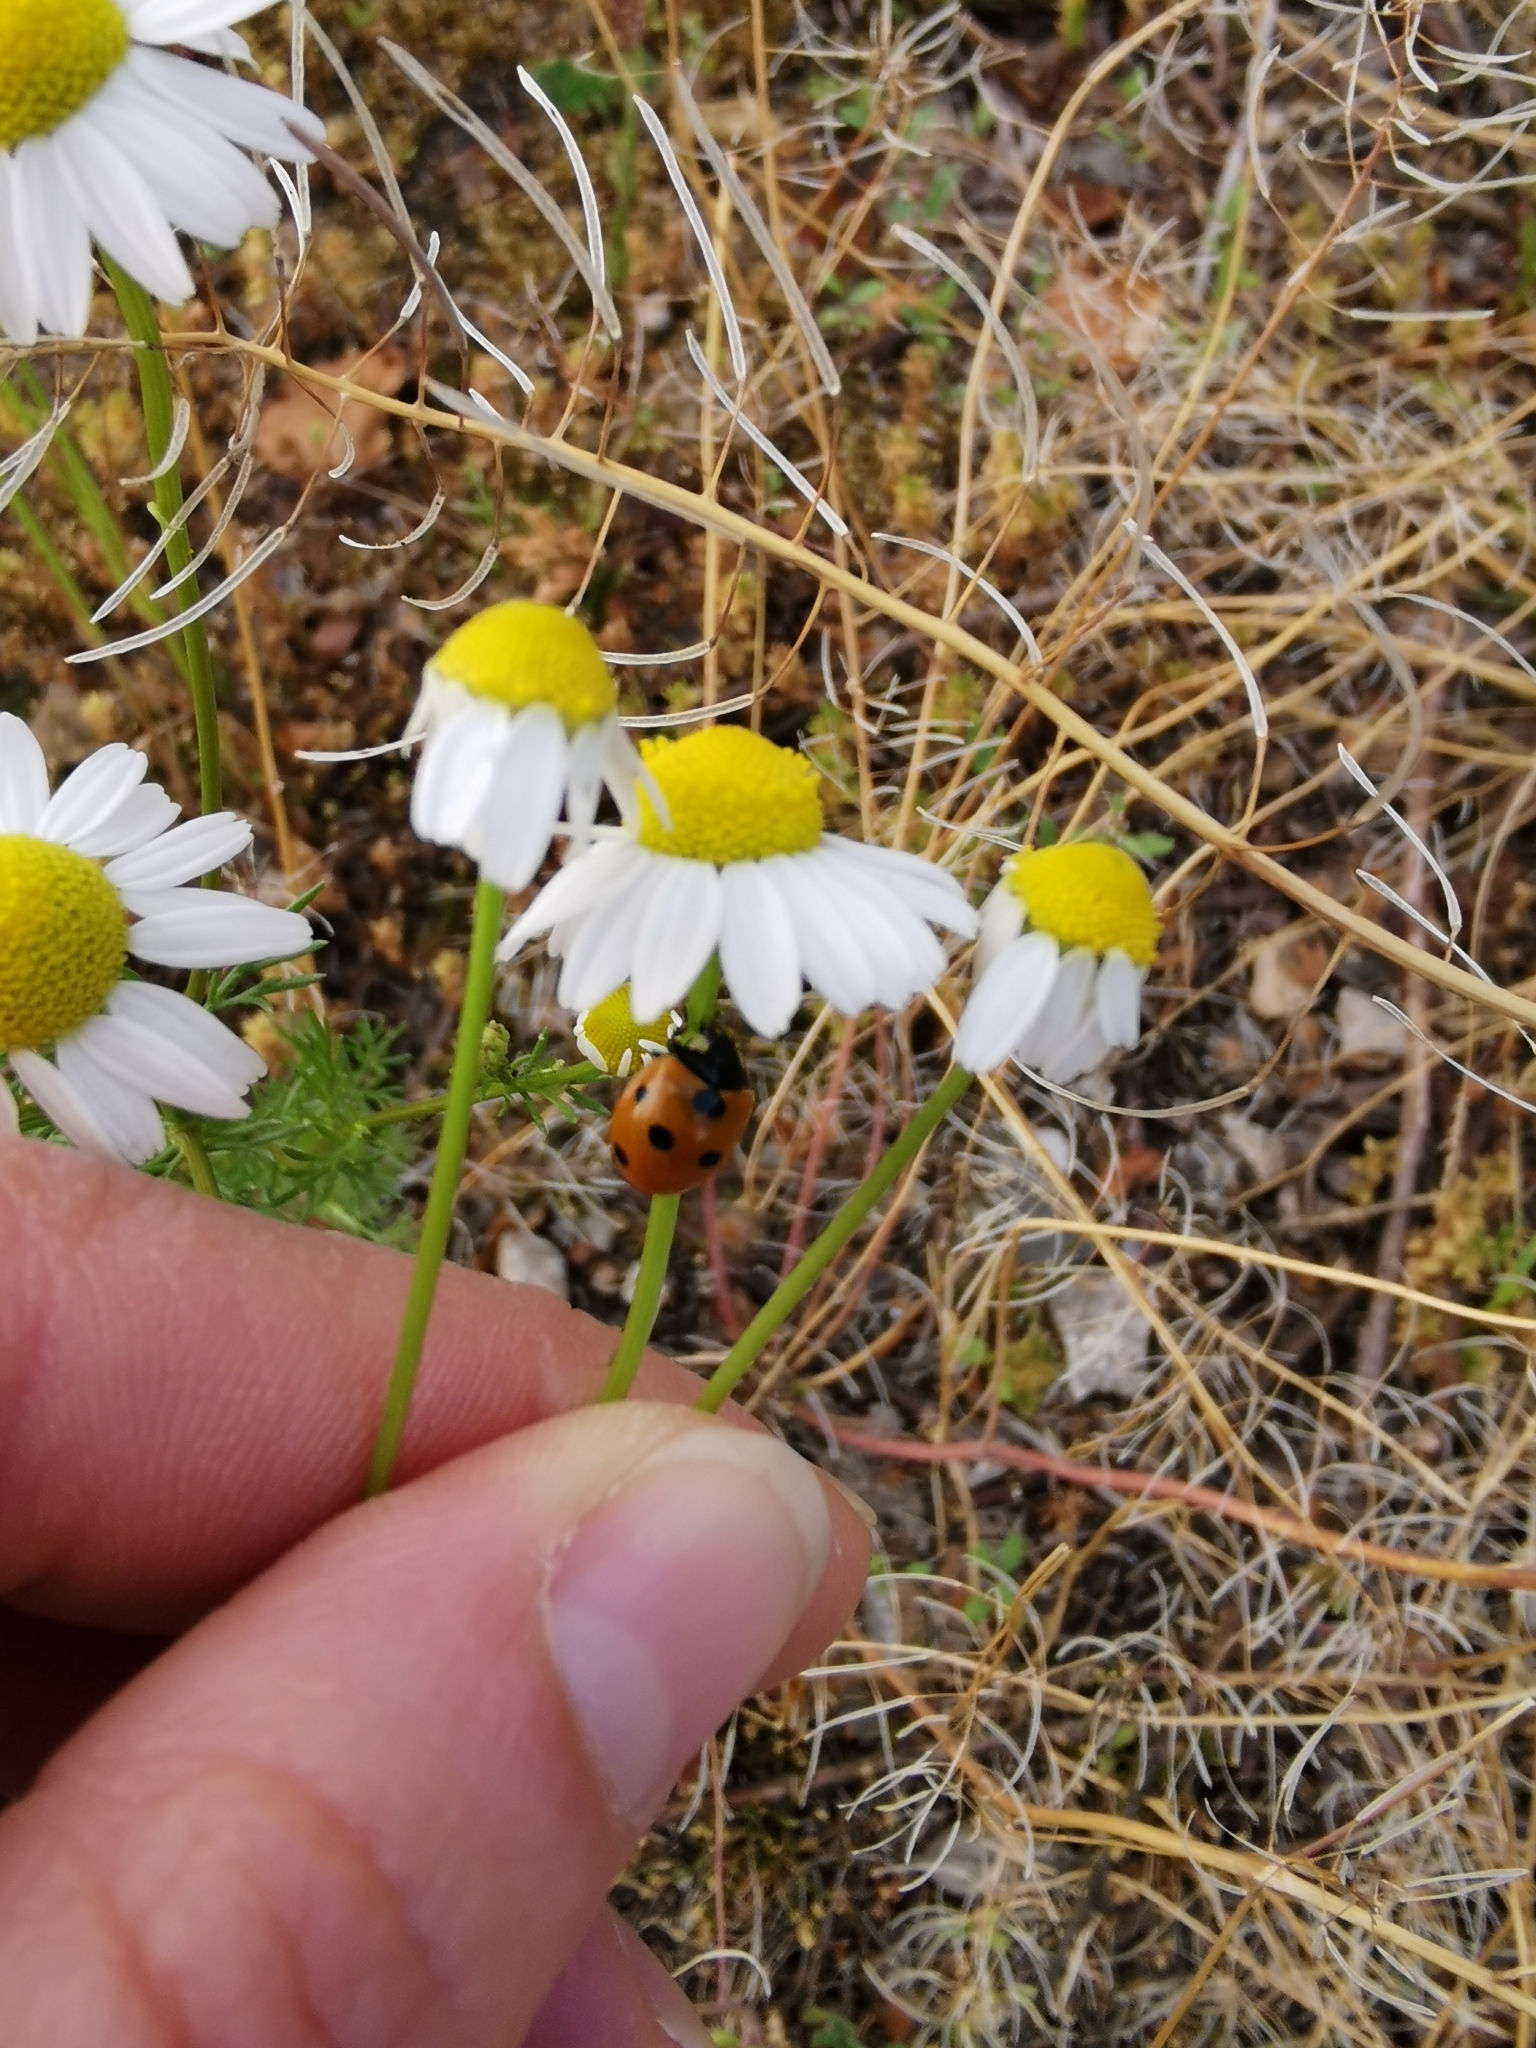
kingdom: Animalia
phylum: Arthropoda
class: Insecta
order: Coleoptera
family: Coccinellidae
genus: Coccinella
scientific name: Coccinella septempunctata
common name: Sevenspotted lady beetle
